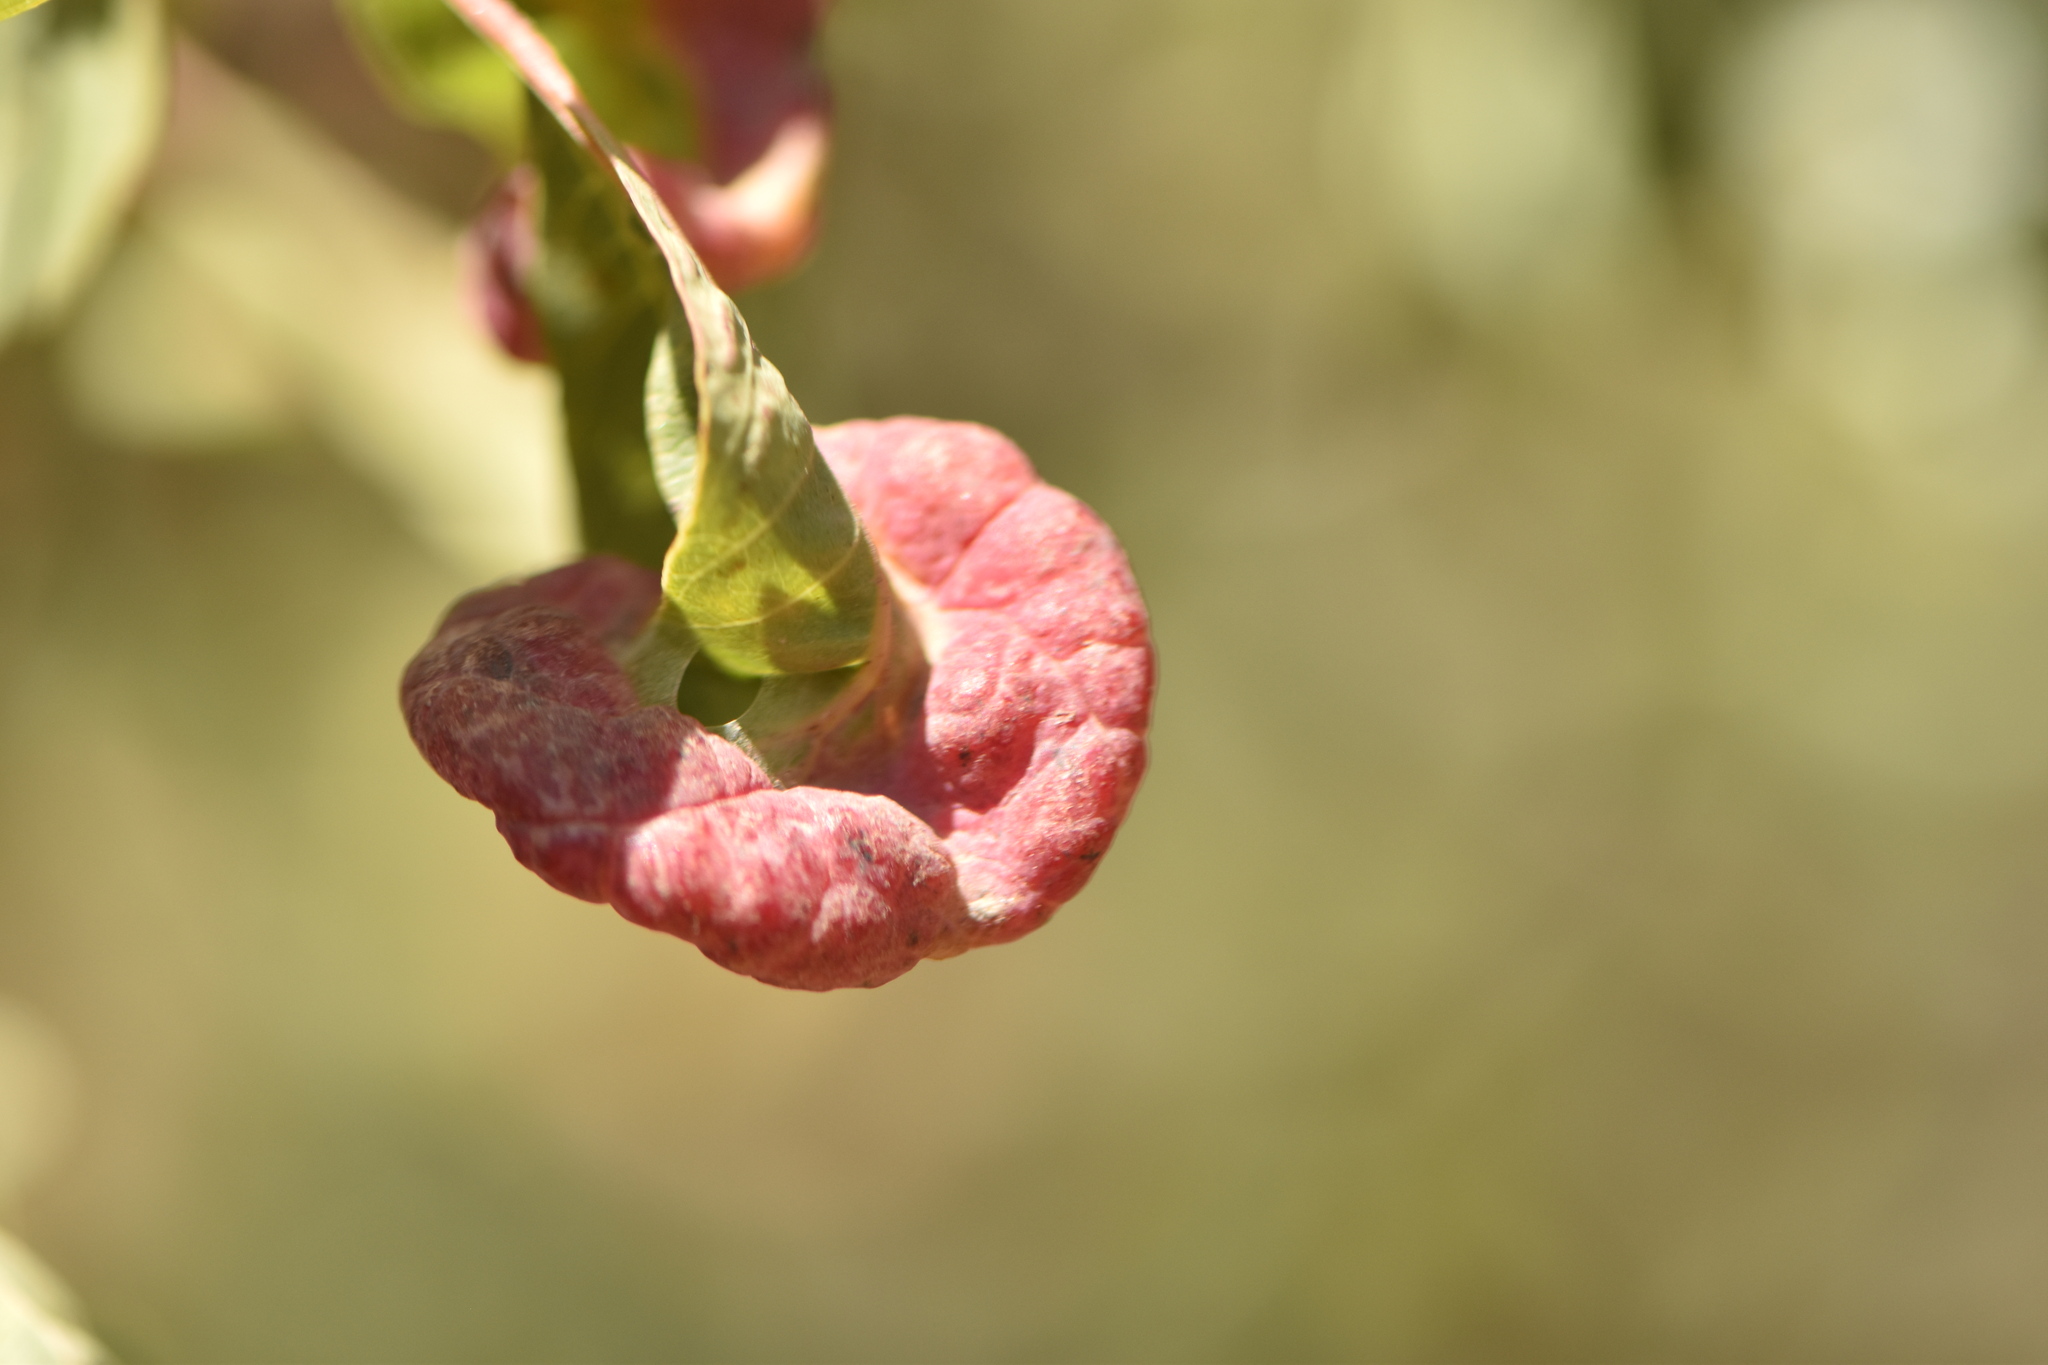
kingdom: Animalia
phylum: Arthropoda
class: Insecta
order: Hemiptera
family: Aphididae
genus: Forda
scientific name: Forda formicaria
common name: Root aphid
